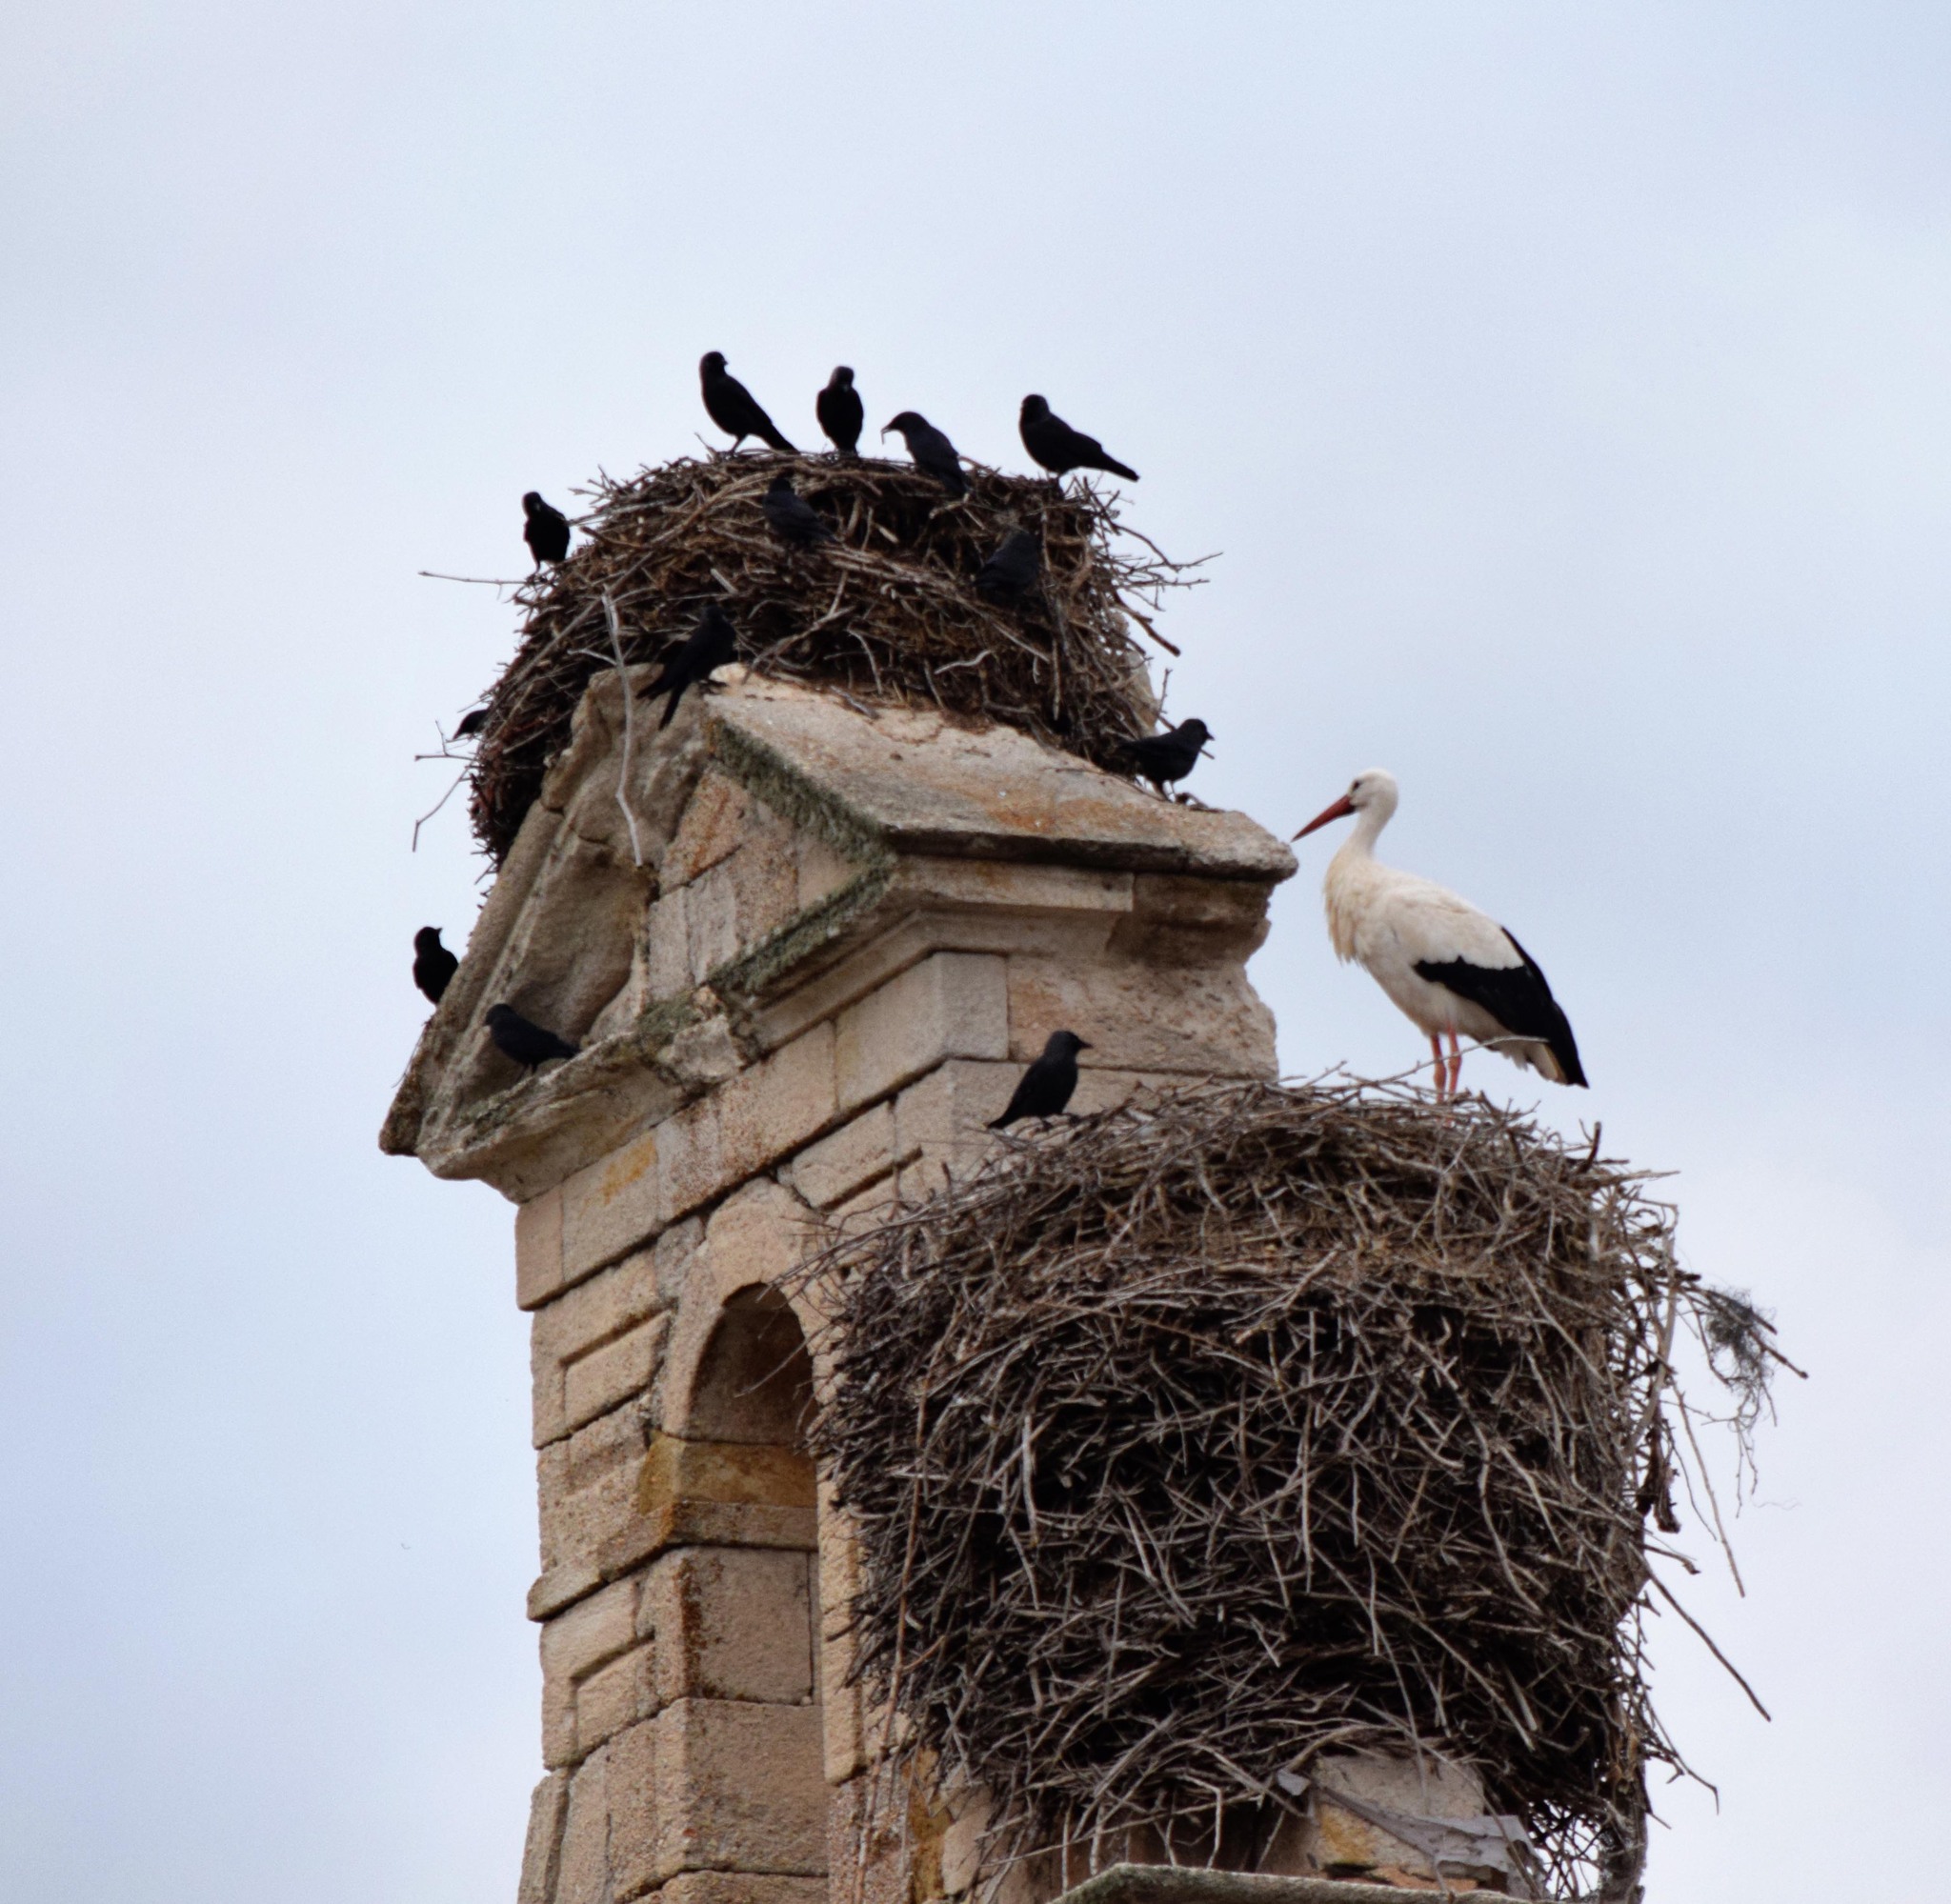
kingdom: Animalia
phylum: Chordata
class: Aves
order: Ciconiiformes
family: Ciconiidae
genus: Ciconia
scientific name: Ciconia ciconia
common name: White stork
